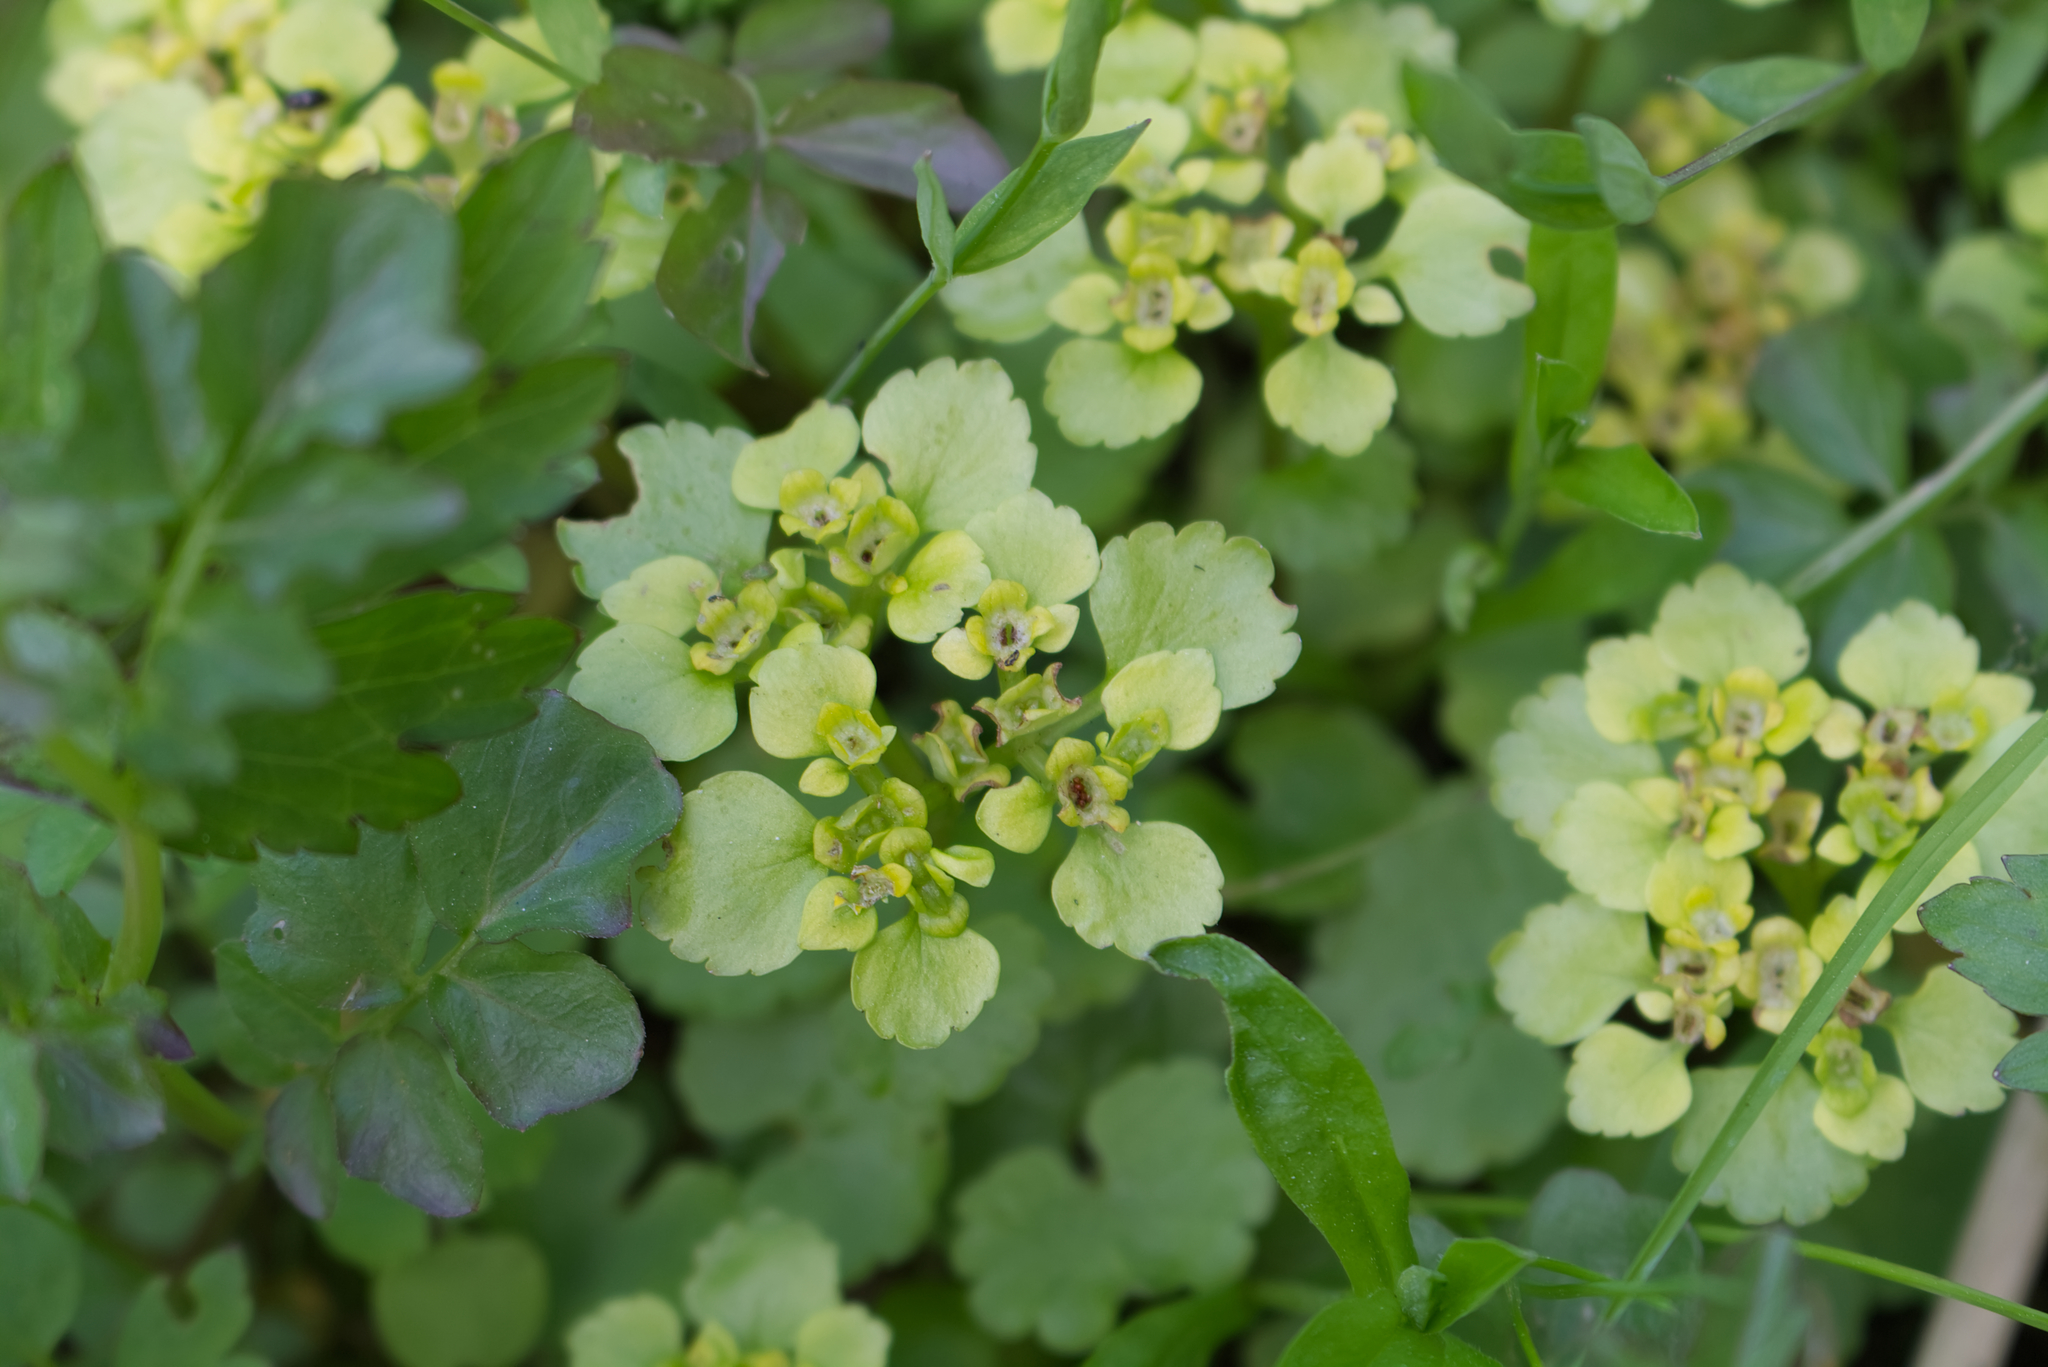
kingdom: Plantae
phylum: Tracheophyta
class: Magnoliopsida
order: Saxifragales
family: Saxifragaceae
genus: Chrysosplenium
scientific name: Chrysosplenium alternifolium
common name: Alternate-leaved golden-saxifrage
